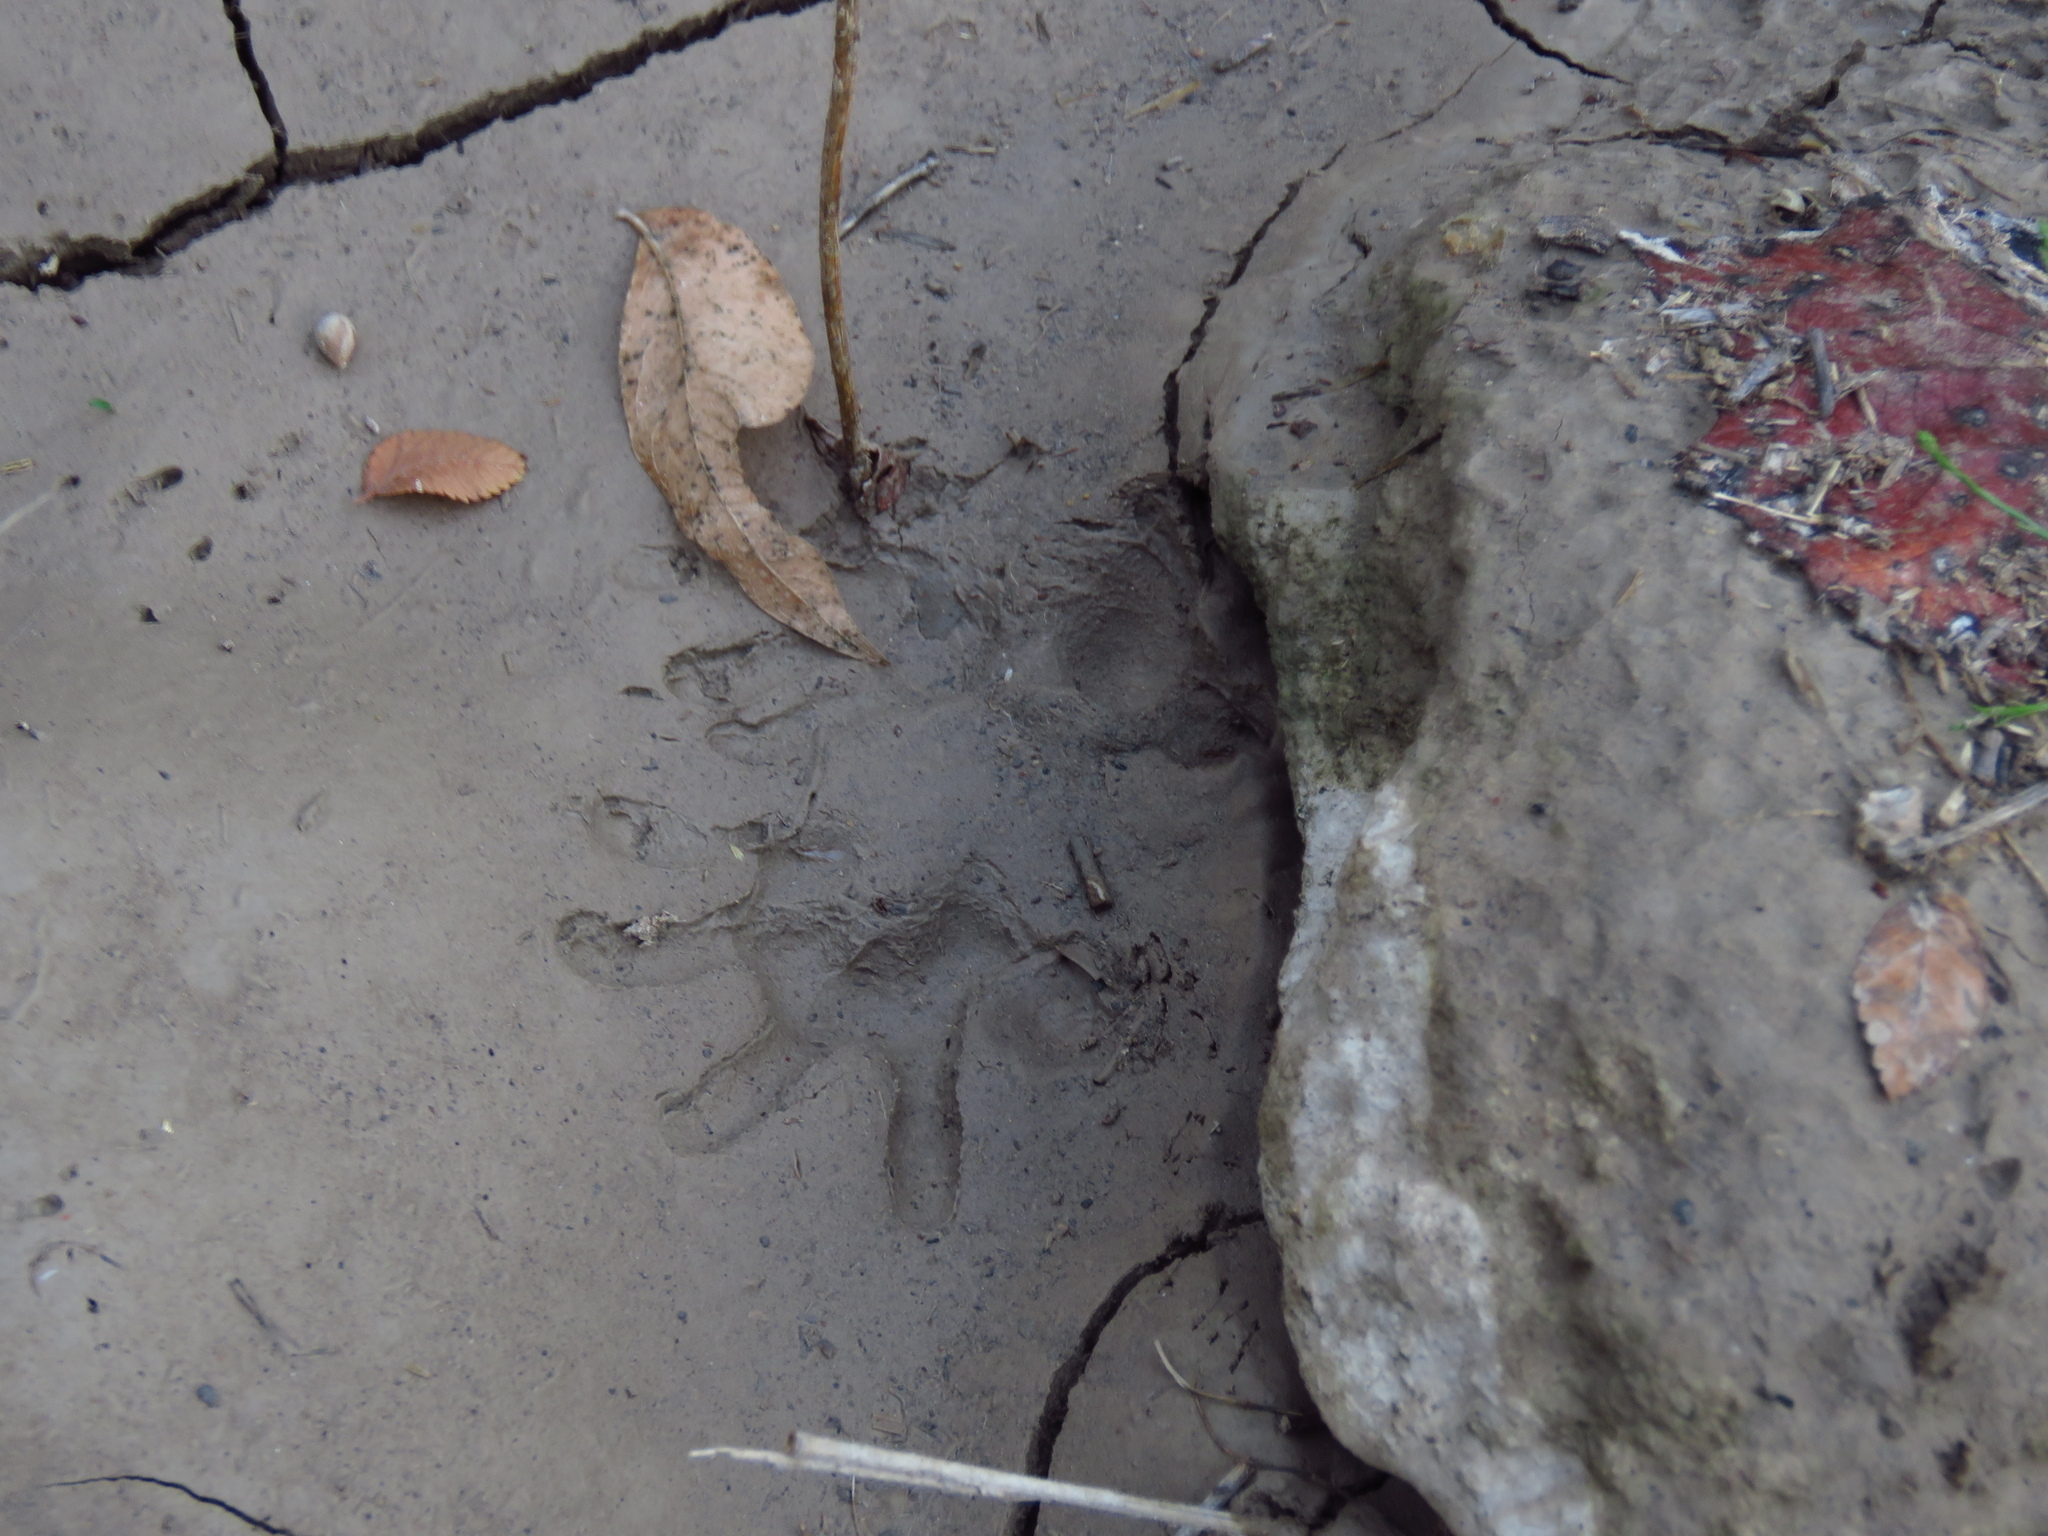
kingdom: Animalia
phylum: Chordata
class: Mammalia
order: Didelphimorphia
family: Didelphidae
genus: Didelphis
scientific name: Didelphis virginiana
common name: Virginia opossum
